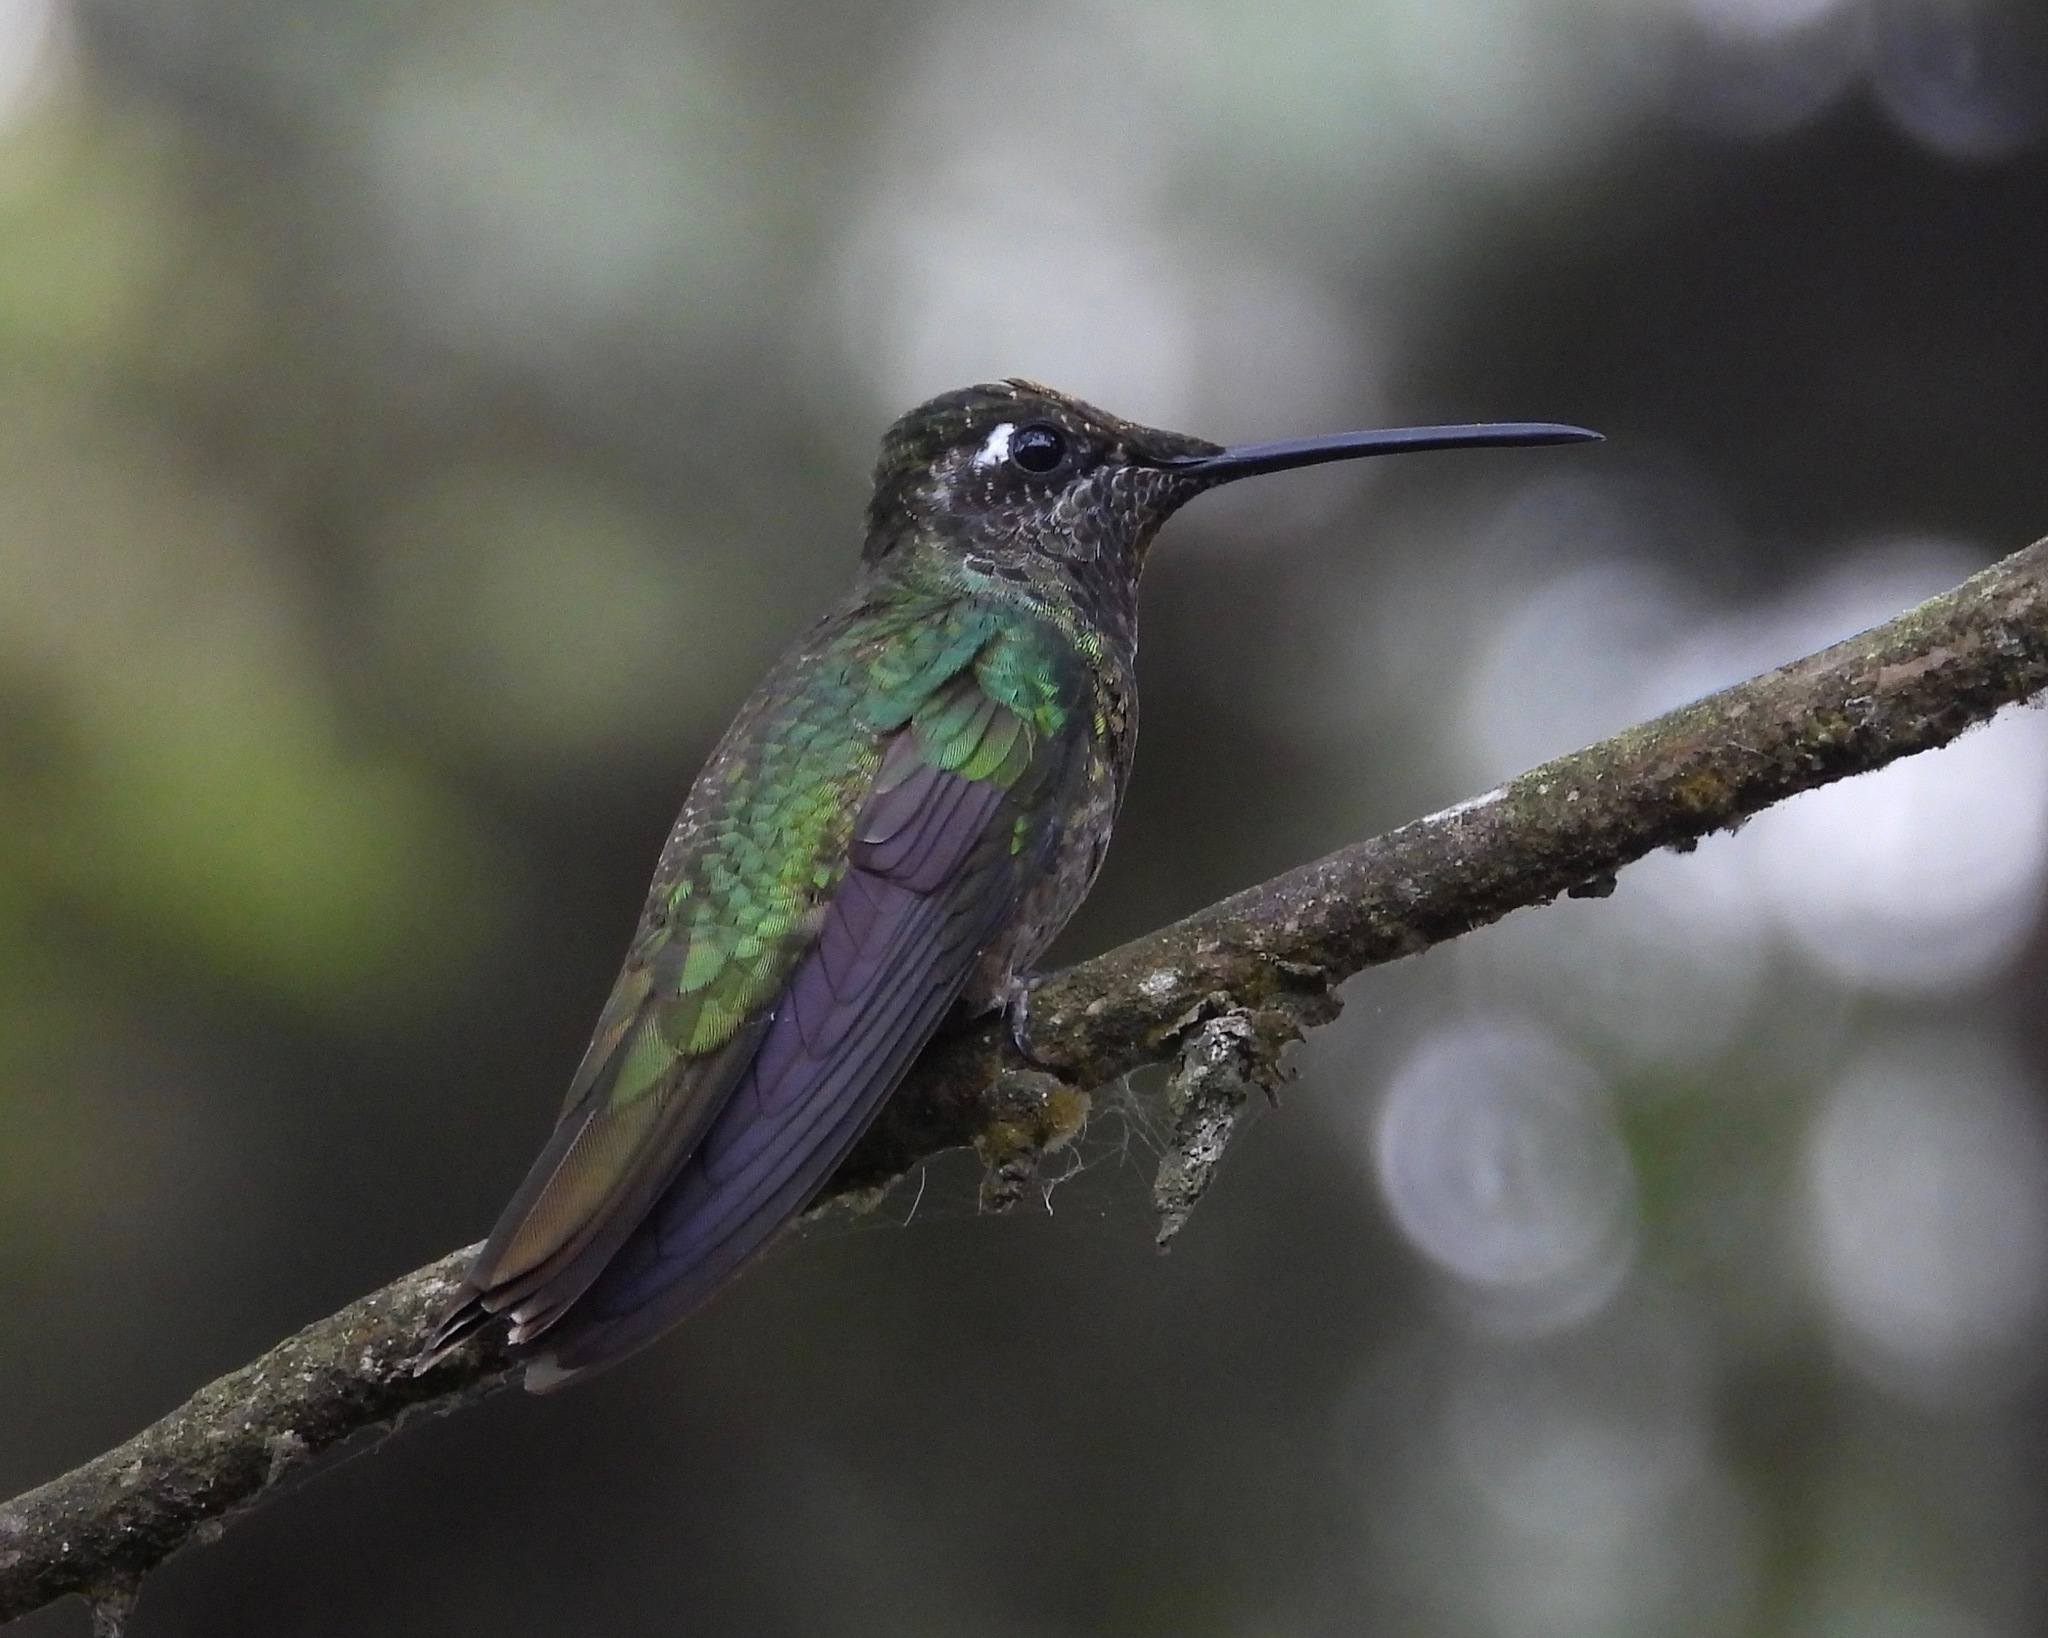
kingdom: Animalia
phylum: Chordata
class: Aves
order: Apodiformes
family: Trochilidae
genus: Eugenes
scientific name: Eugenes fulgens
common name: Magnificent hummingbird
